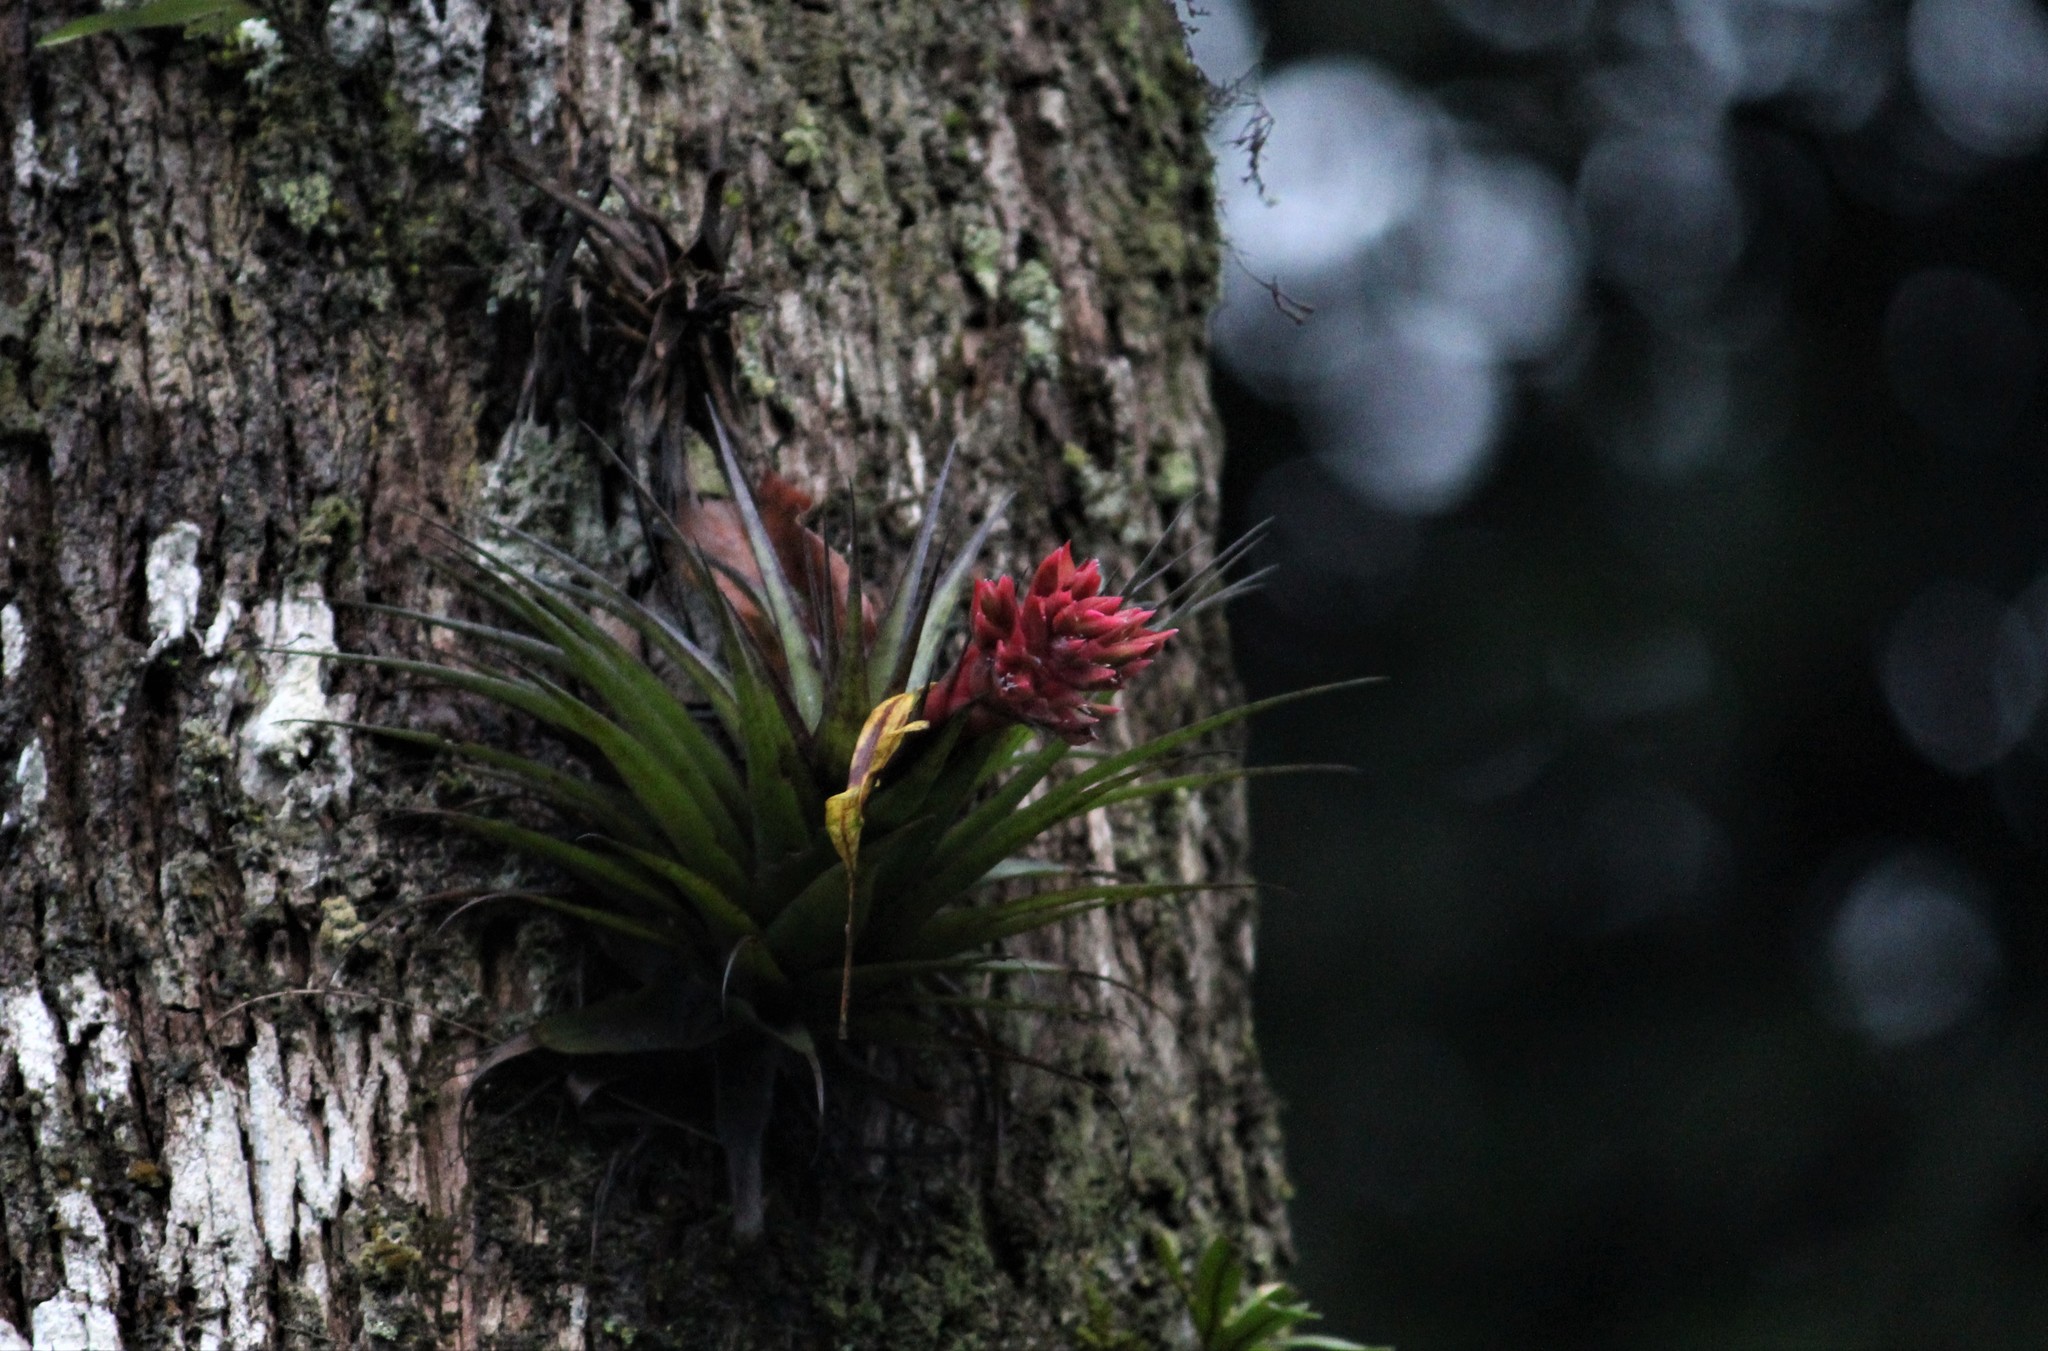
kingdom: Plantae
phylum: Tracheophyta
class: Liliopsida
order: Poales
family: Bromeliaceae
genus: Tillandsia
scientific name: Tillandsia geminiflora
